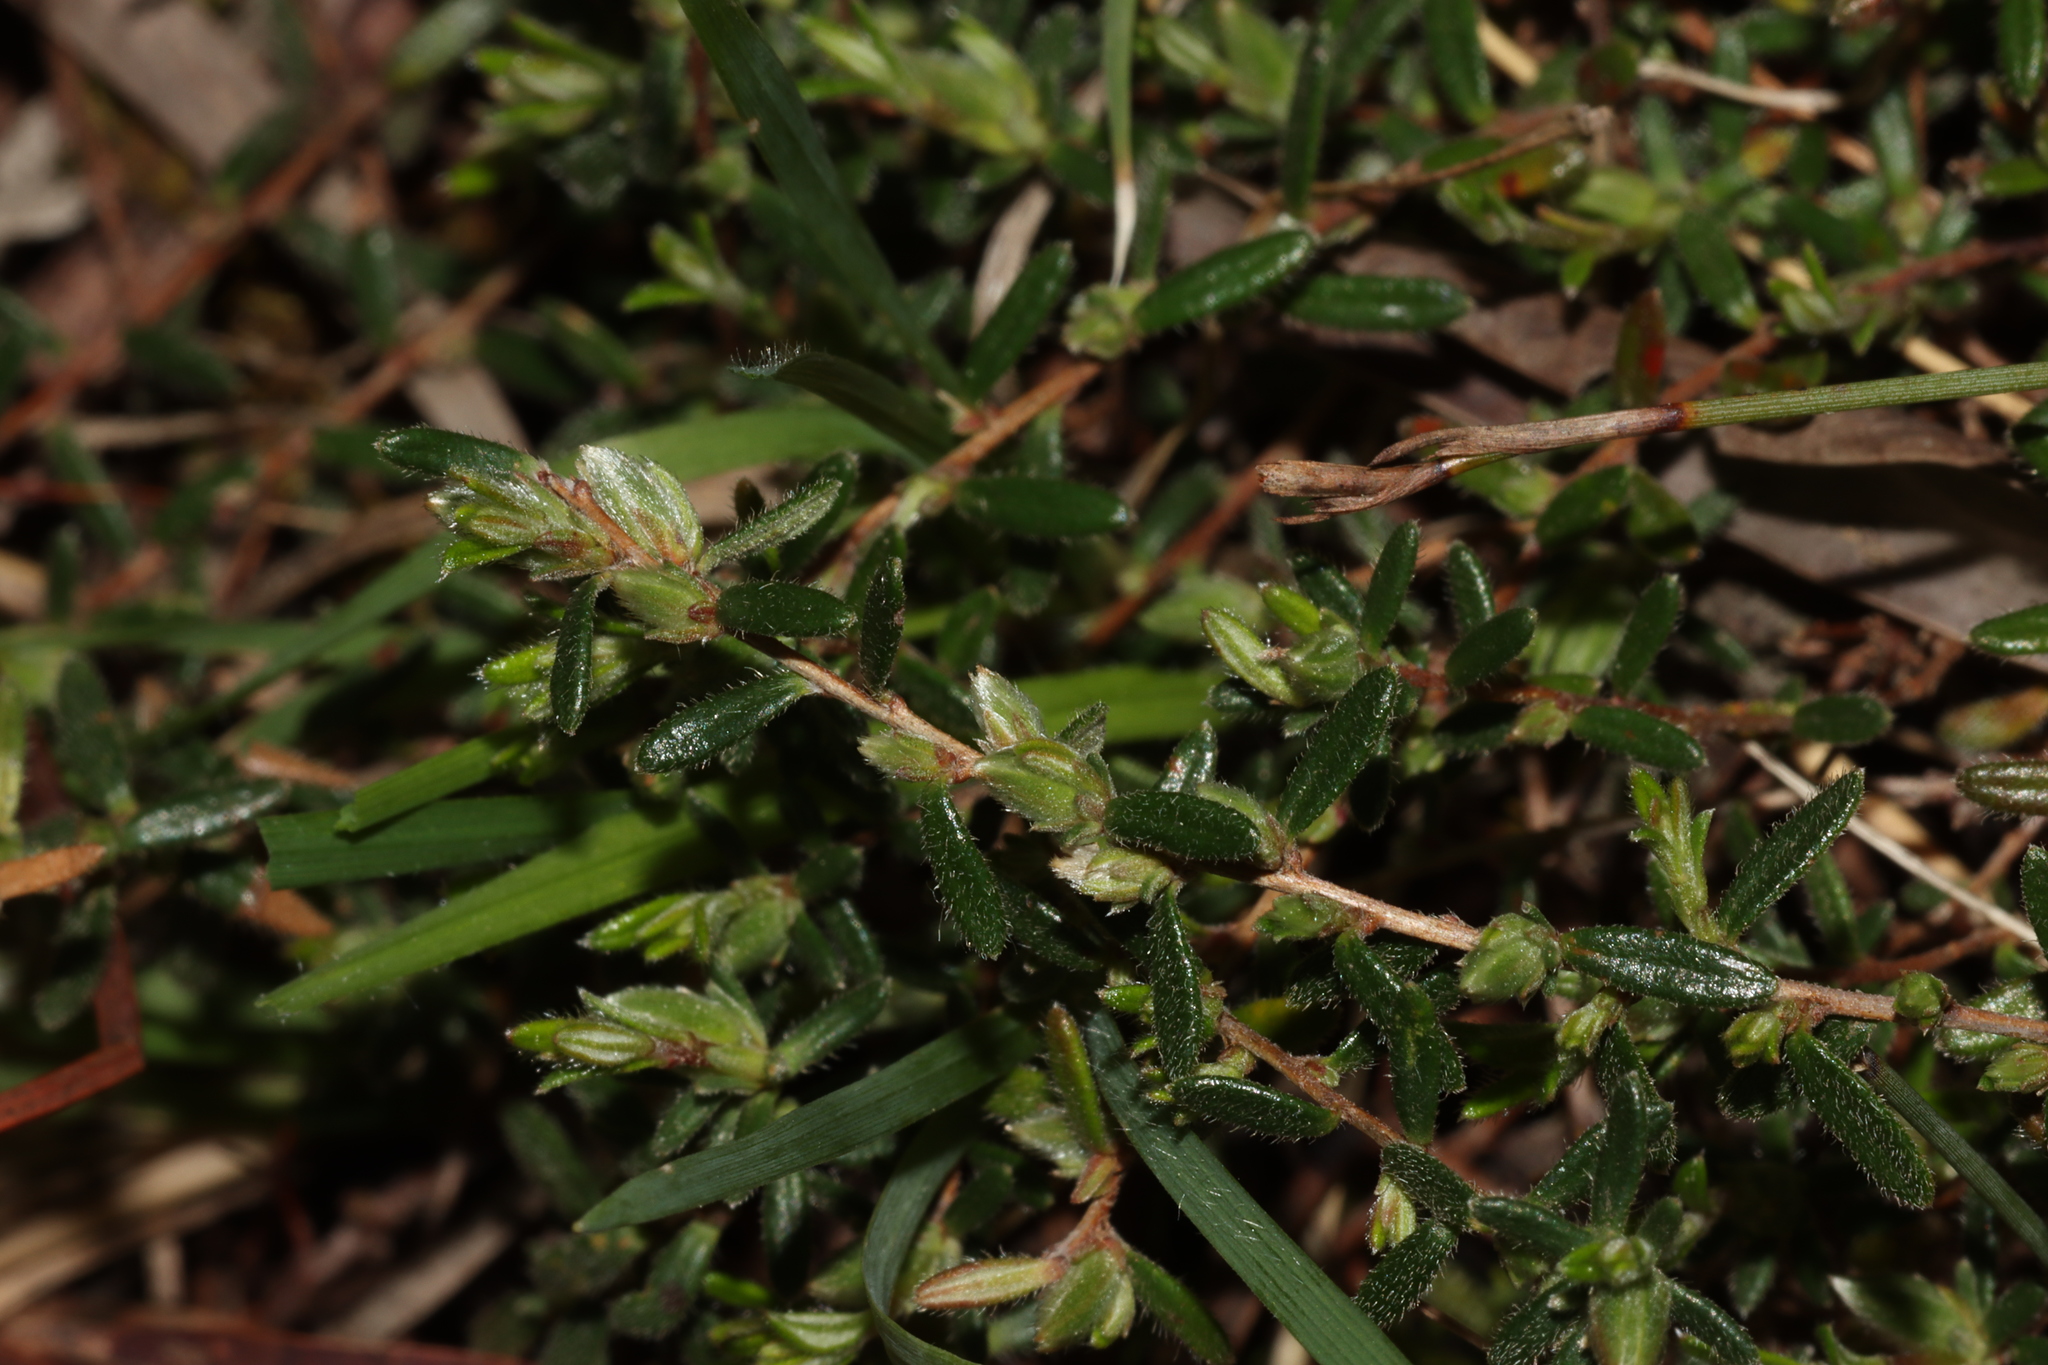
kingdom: Plantae
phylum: Tracheophyta
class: Magnoliopsida
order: Dilleniales
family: Dilleniaceae
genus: Hibbertia
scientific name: Hibbertia hirsuta
